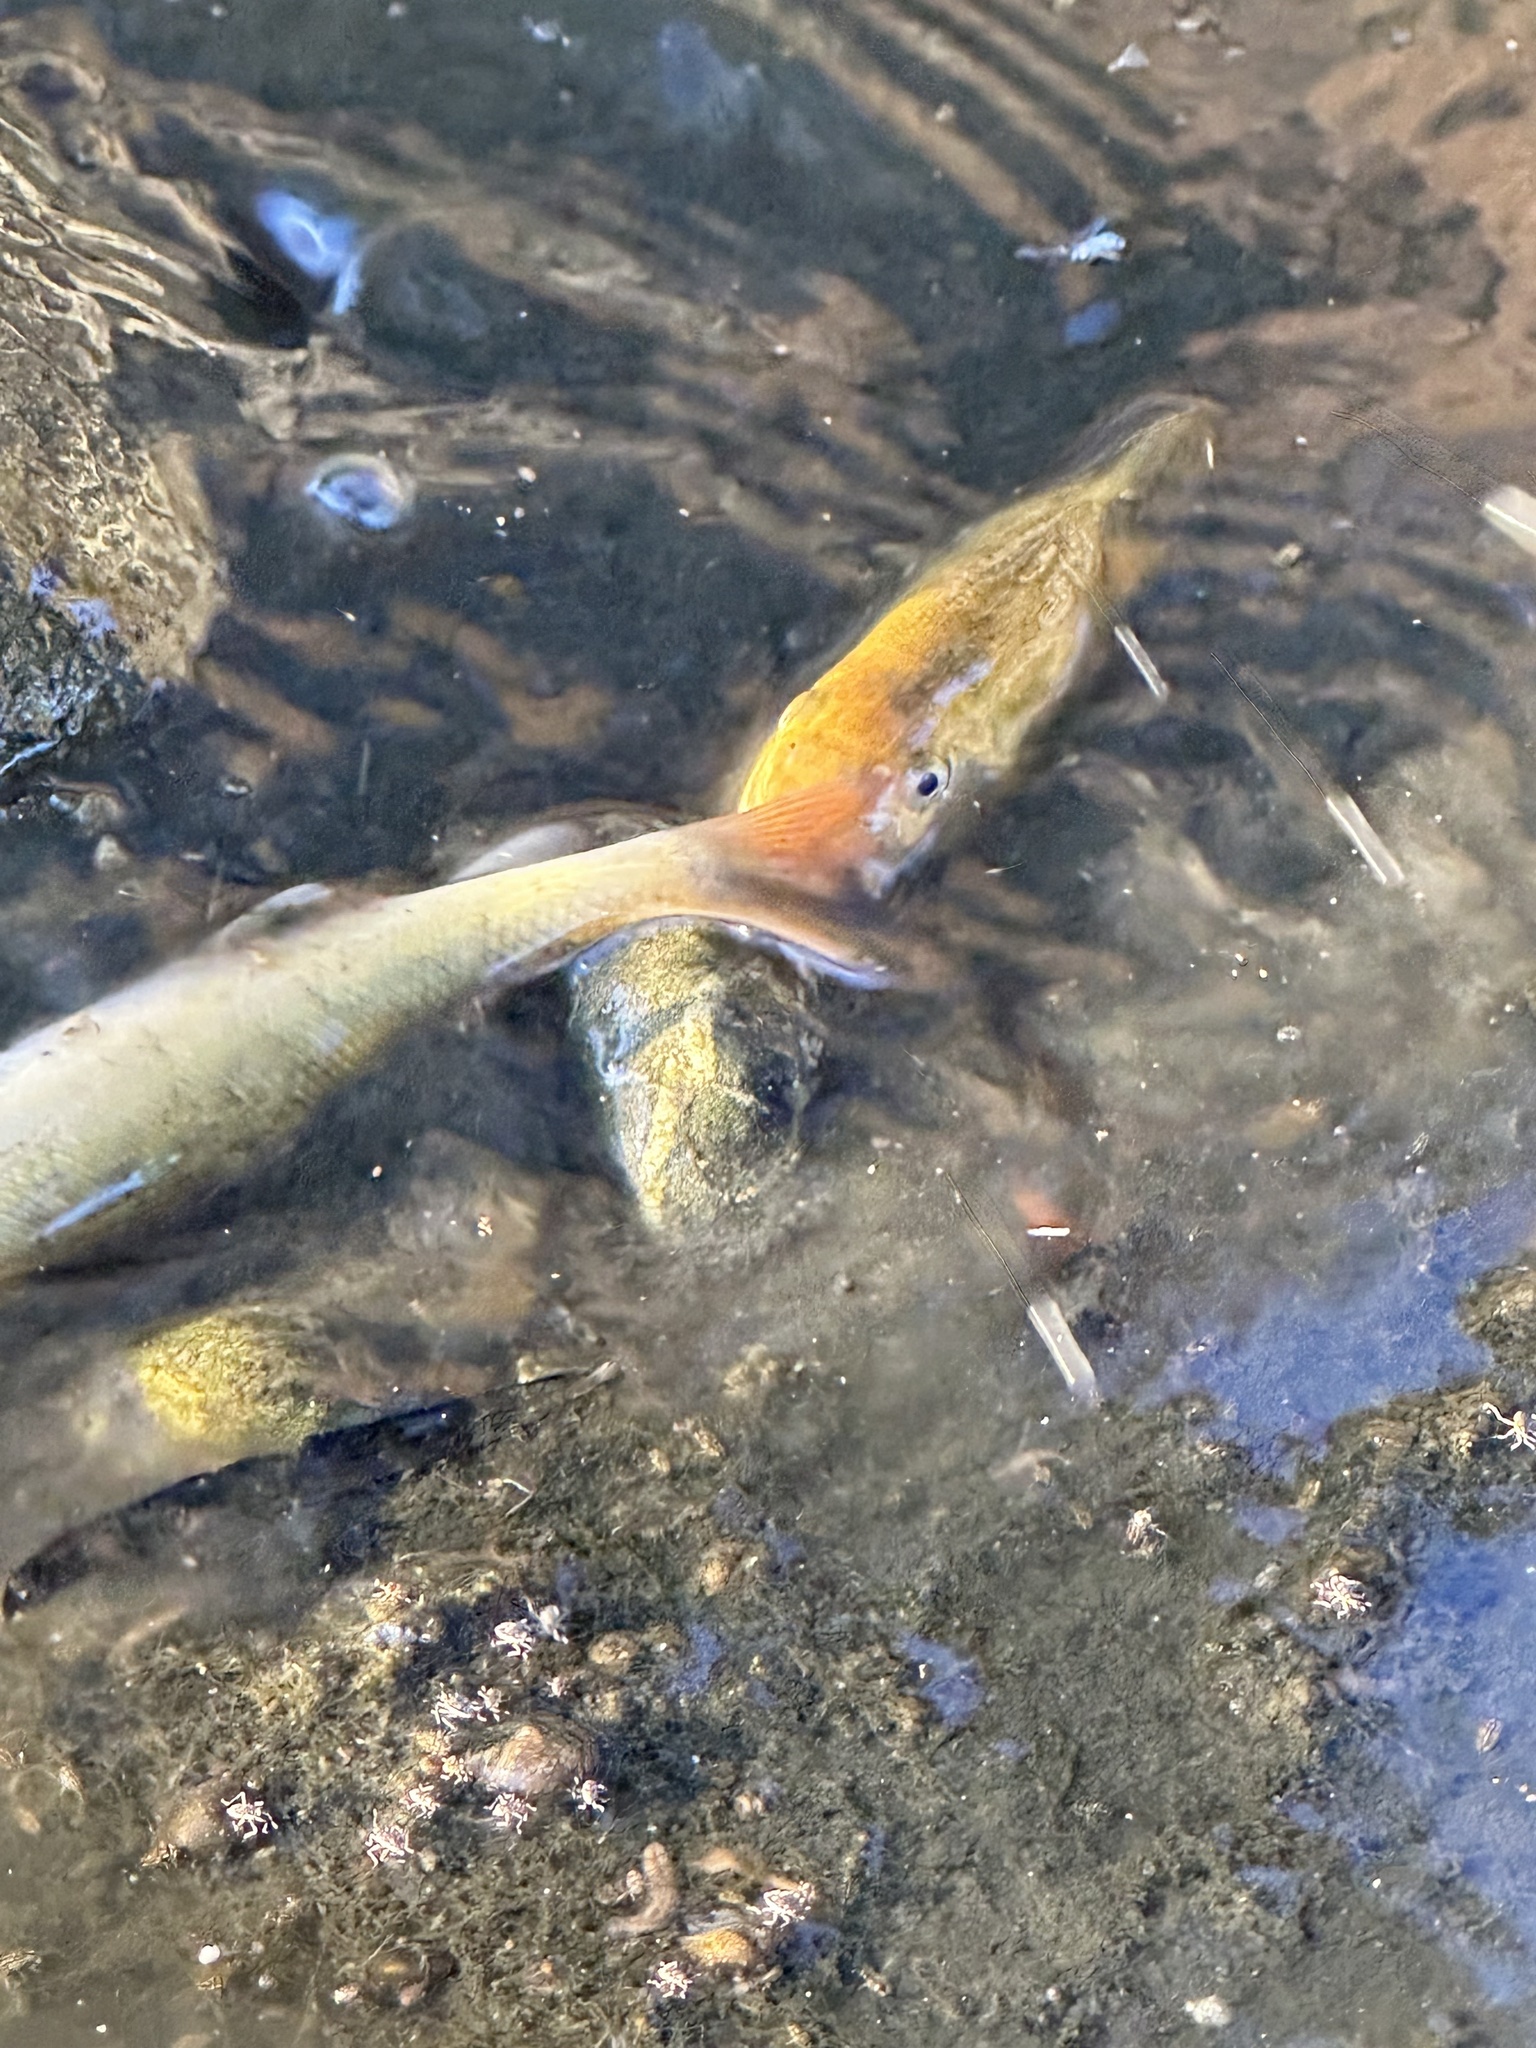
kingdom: Animalia
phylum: Chordata
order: Cypriniformes
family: Catostomidae
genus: Catostomus
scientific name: Catostomus occidentalis
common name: Goose lake sucker
